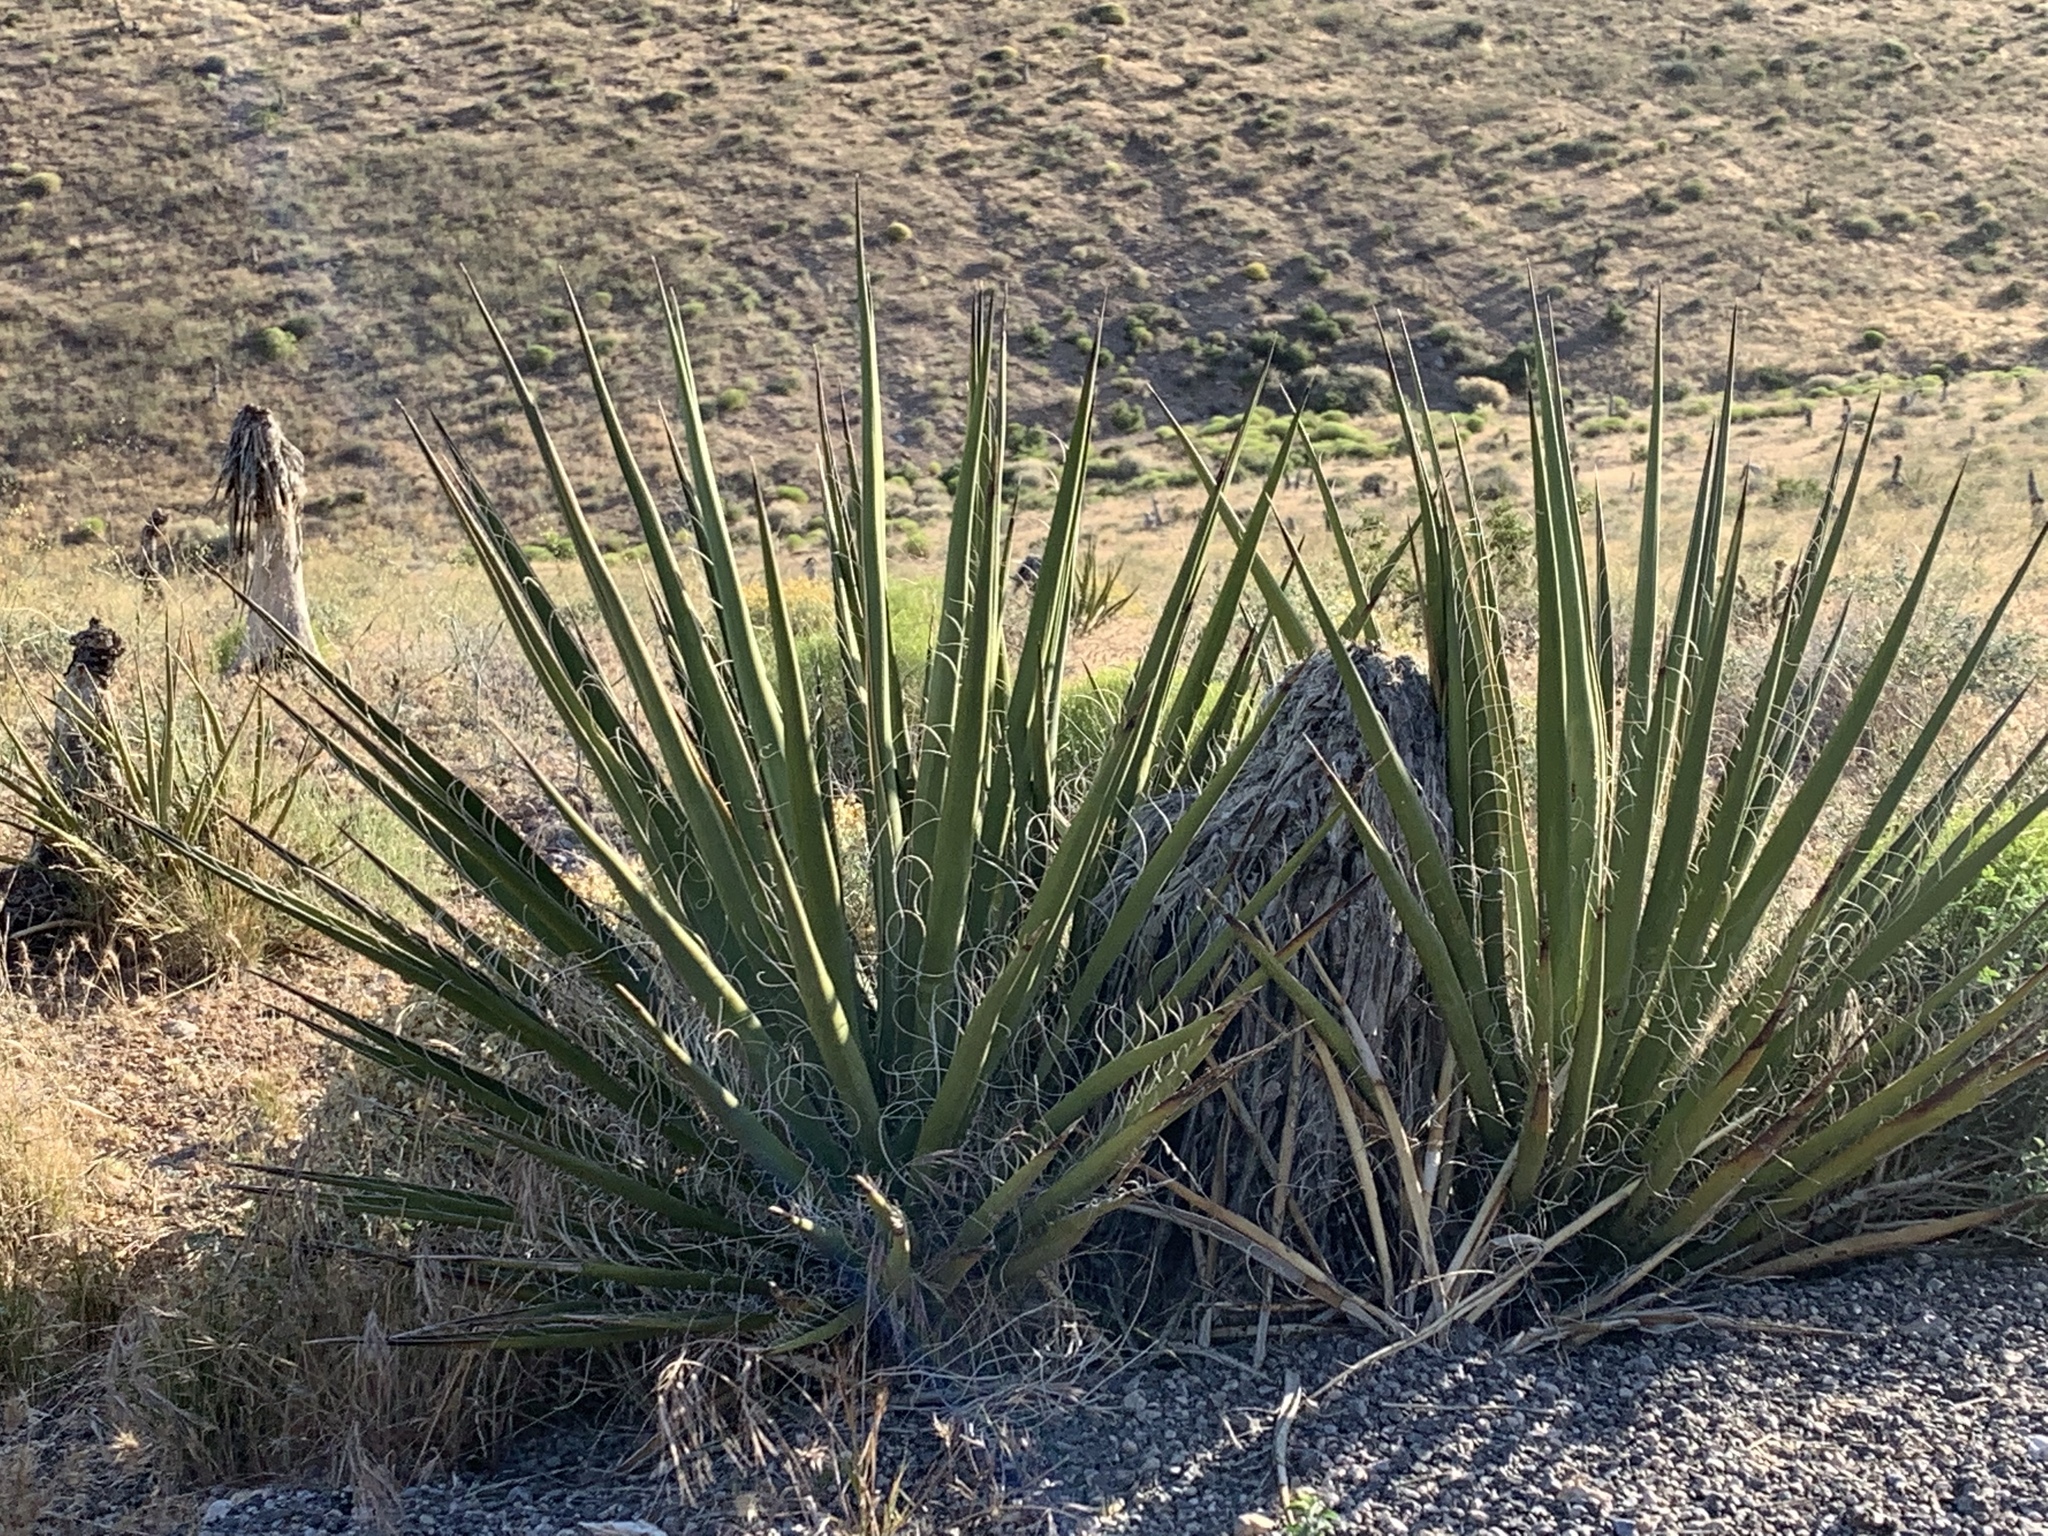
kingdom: Plantae
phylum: Tracheophyta
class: Liliopsida
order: Asparagales
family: Asparagaceae
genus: Yucca
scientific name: Yucca schidigera
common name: Mojave yucca
